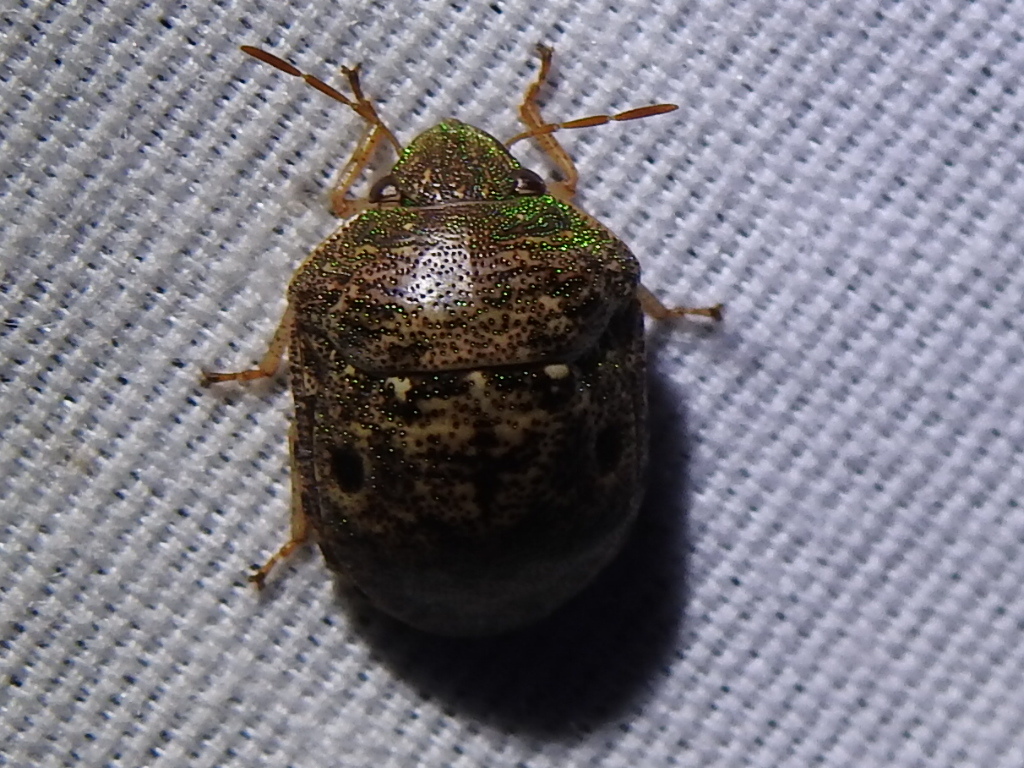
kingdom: Animalia
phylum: Arthropoda
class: Insecta
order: Hemiptera
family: Scutelleridae
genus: Diolcus
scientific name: Diolcus chrysorrhoeus
